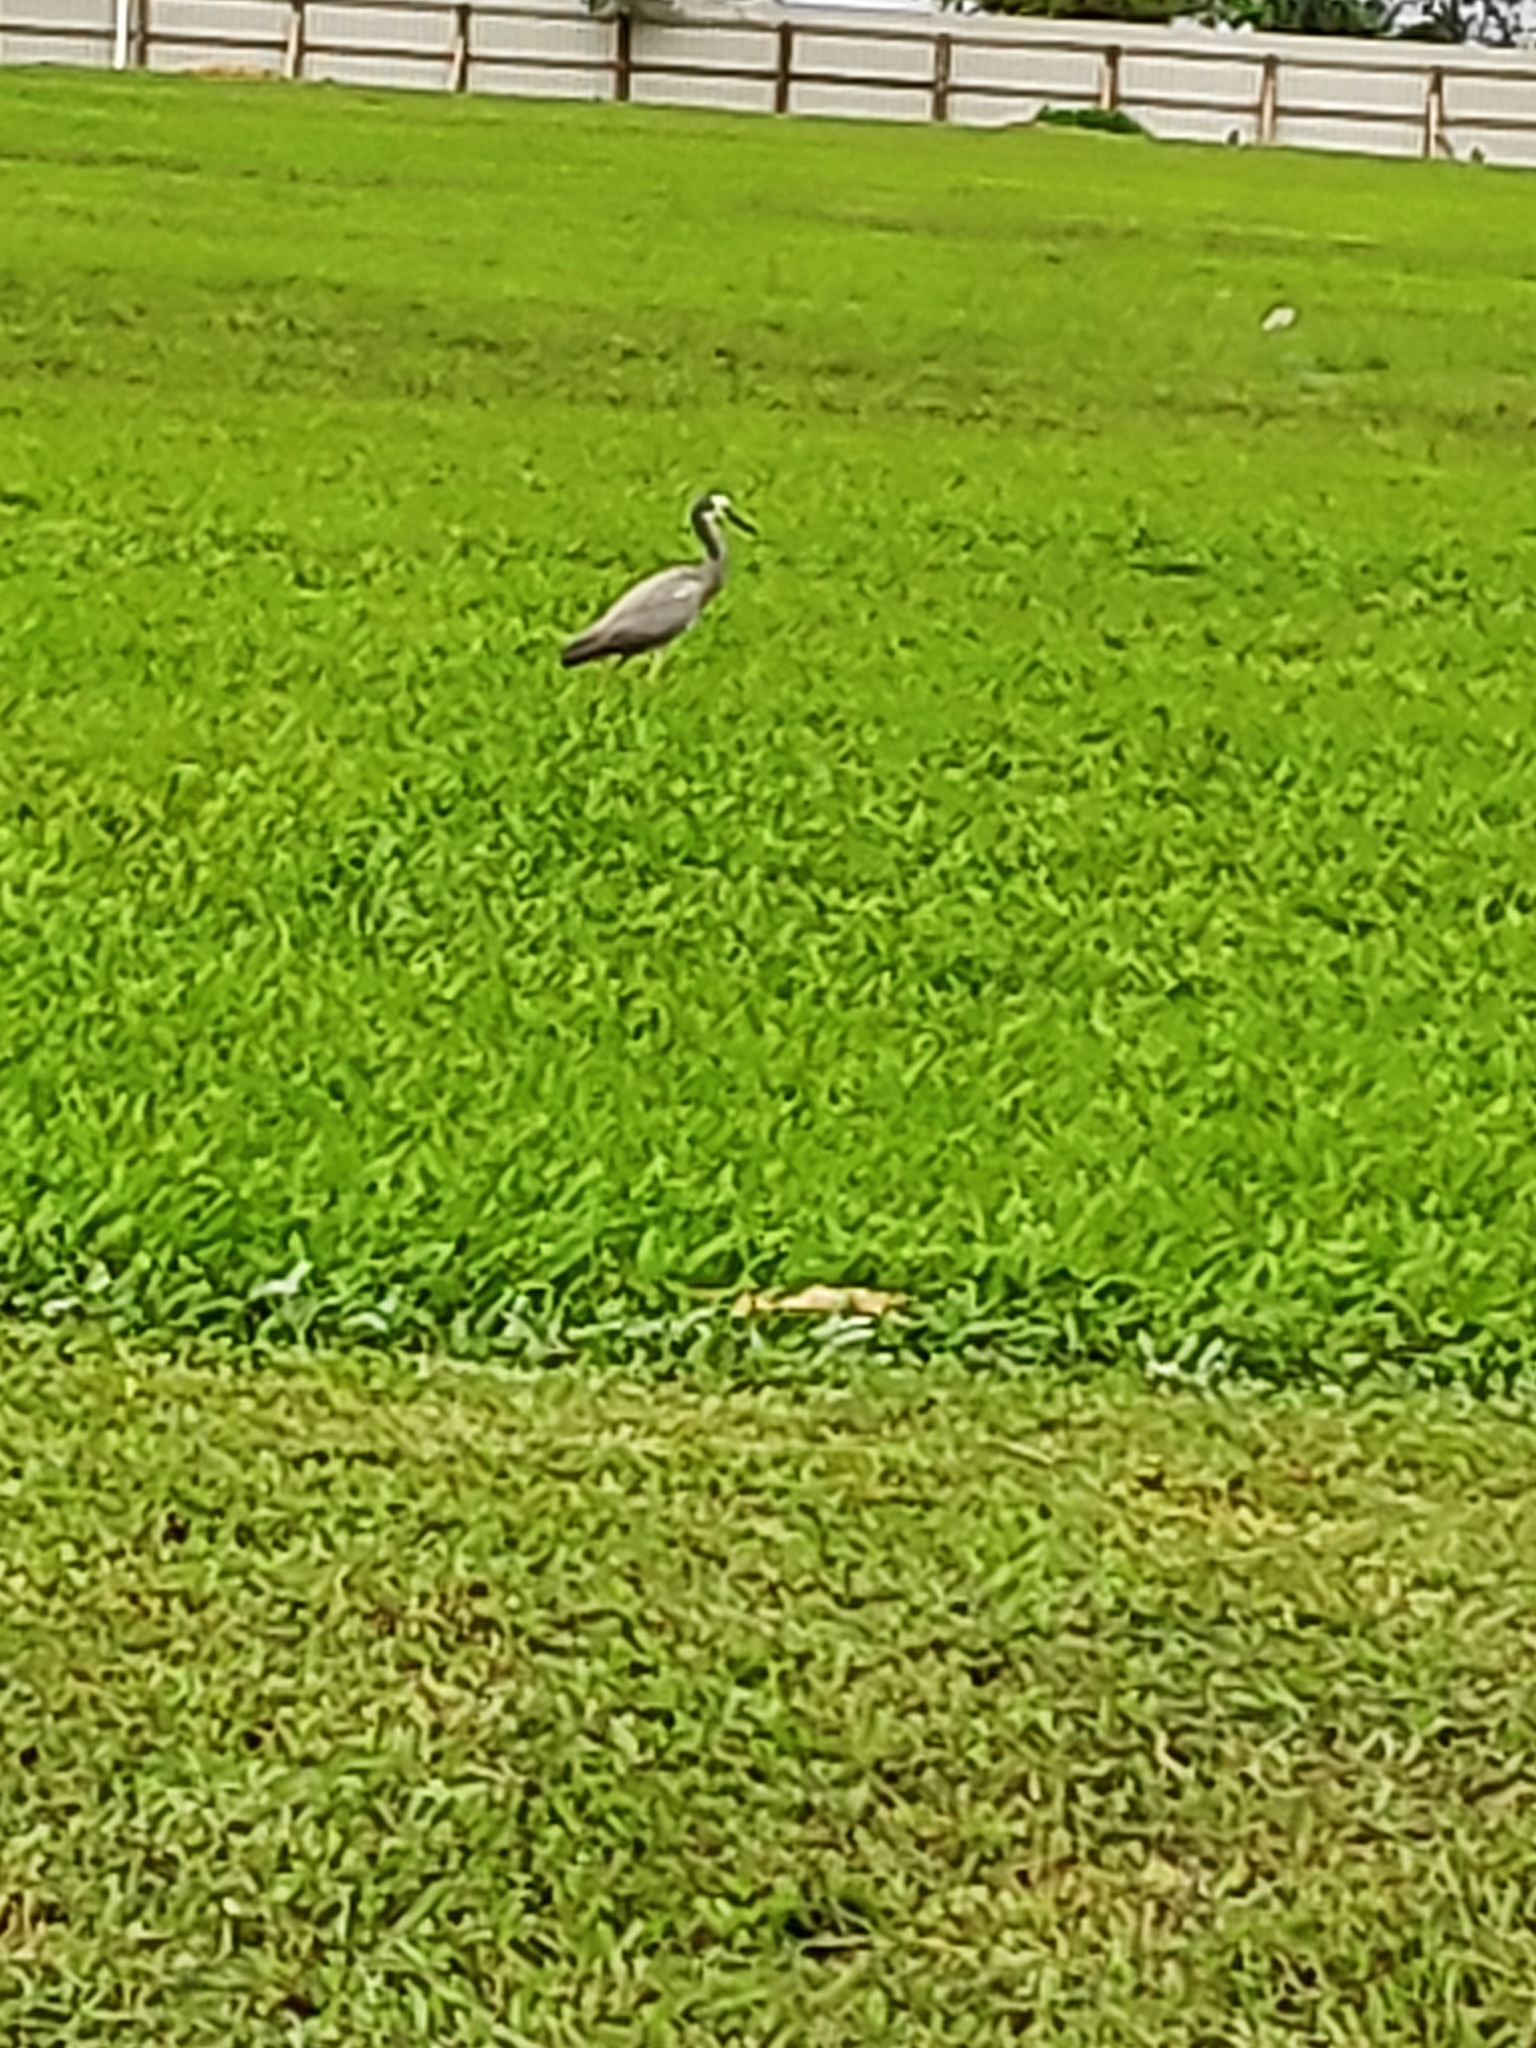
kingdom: Animalia
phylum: Chordata
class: Aves
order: Pelecaniformes
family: Ardeidae
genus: Egretta
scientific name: Egretta novaehollandiae
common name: White-faced heron
